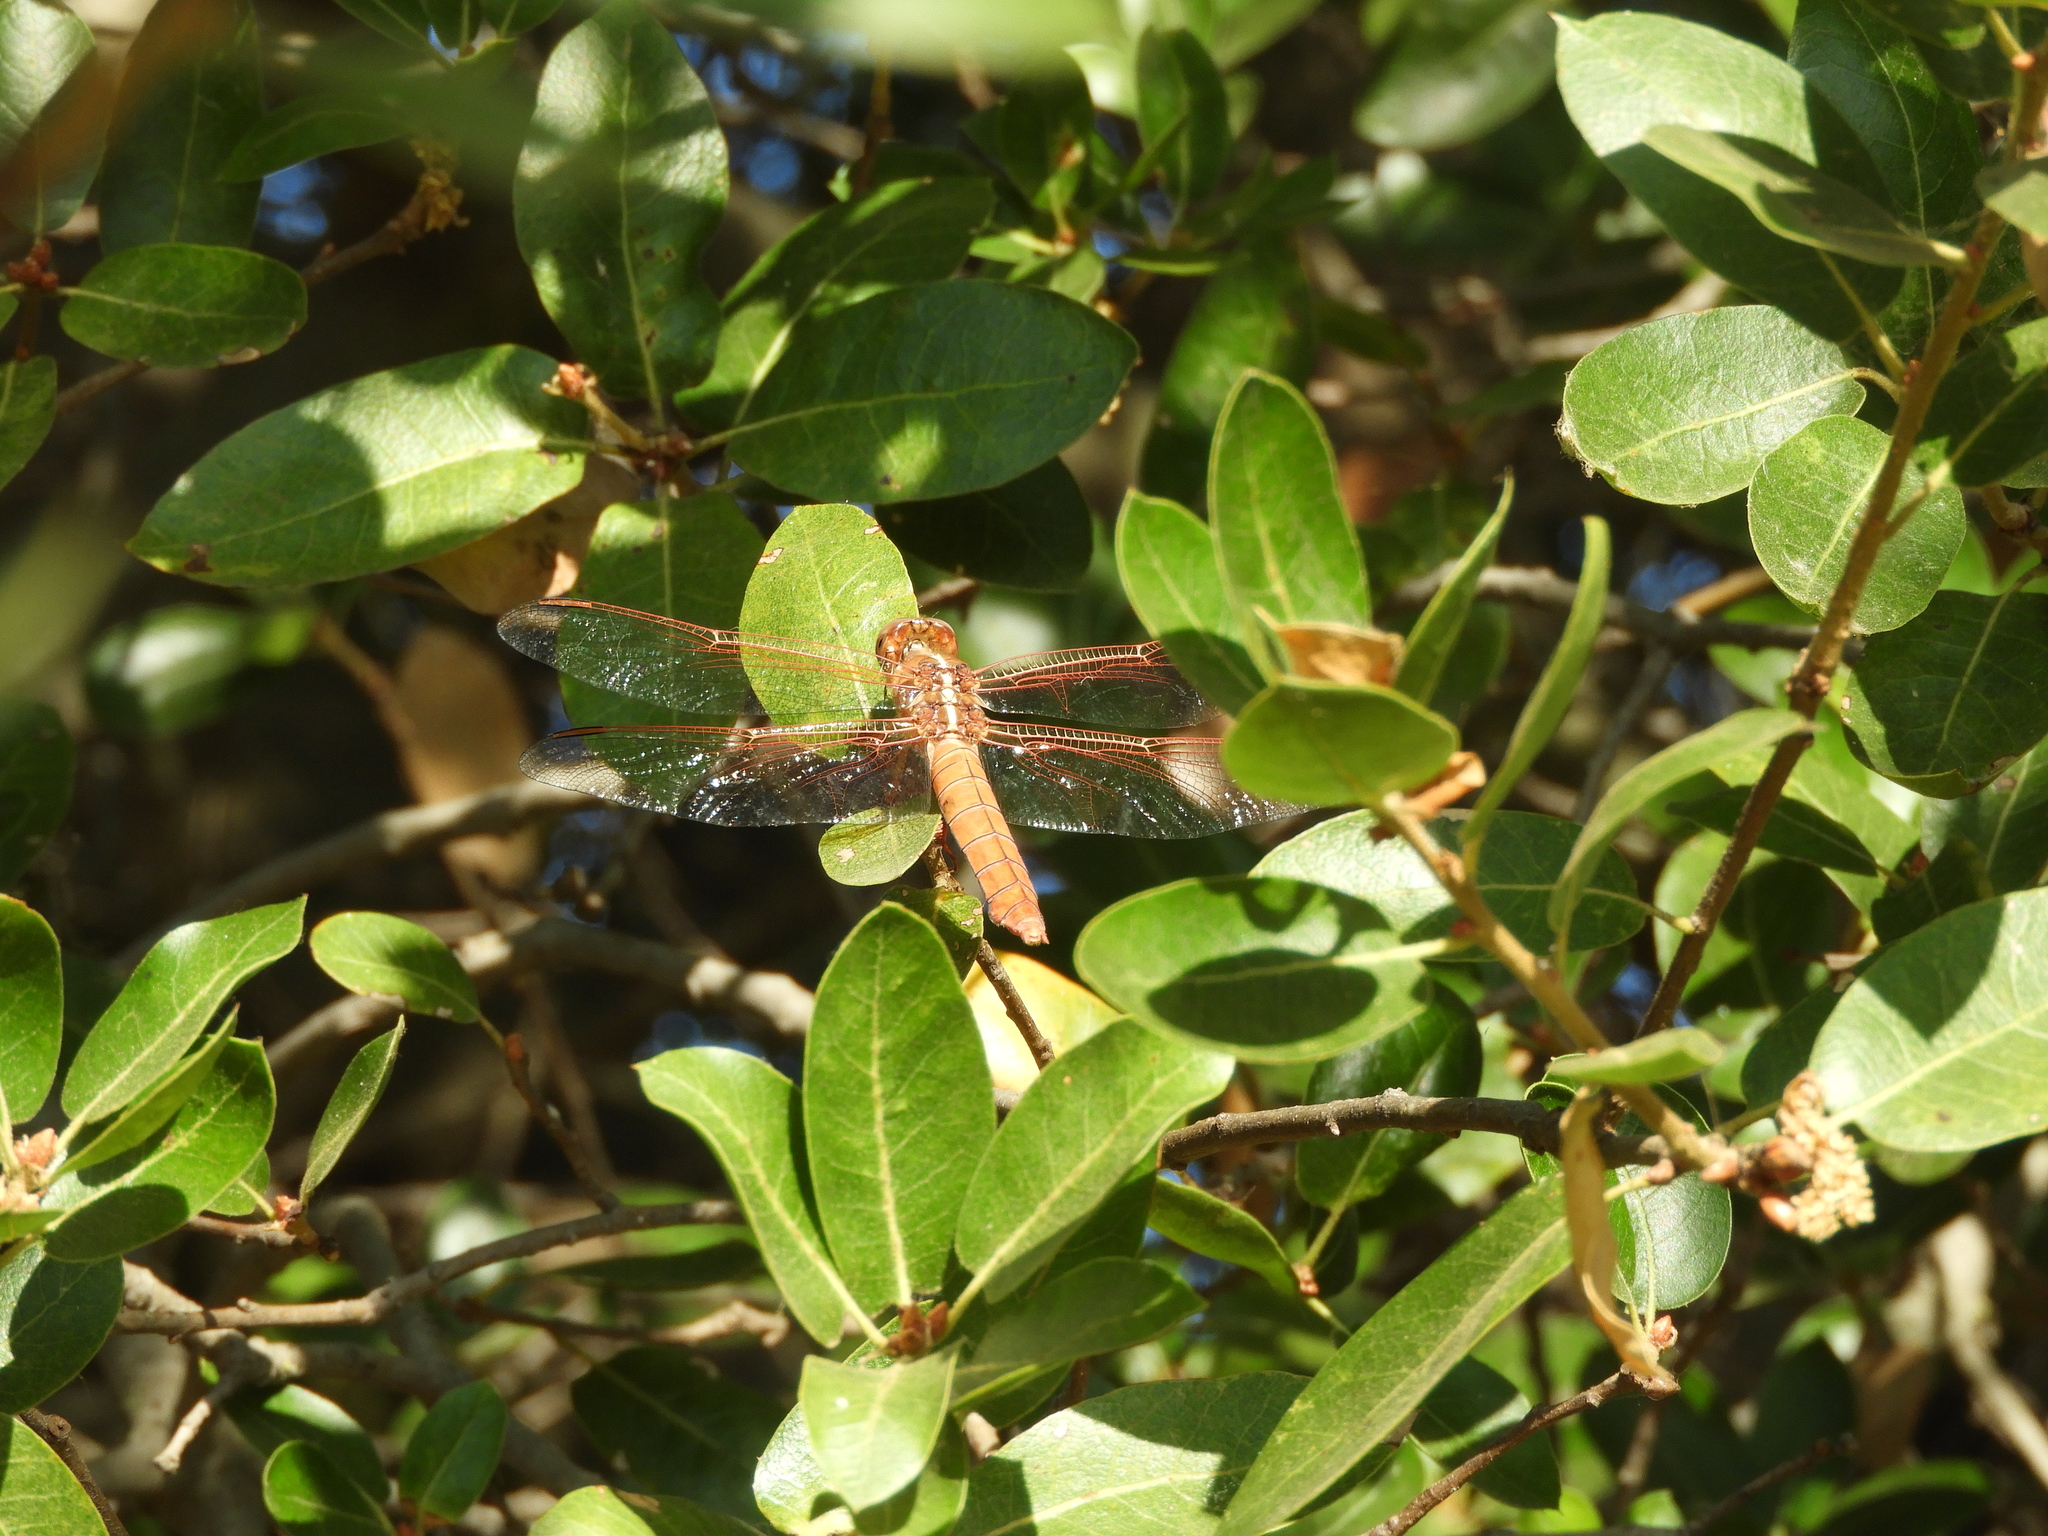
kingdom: Animalia
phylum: Arthropoda
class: Insecta
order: Odonata
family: Libellulidae
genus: Libellula
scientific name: Libellula saturata
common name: Flame skimmer
